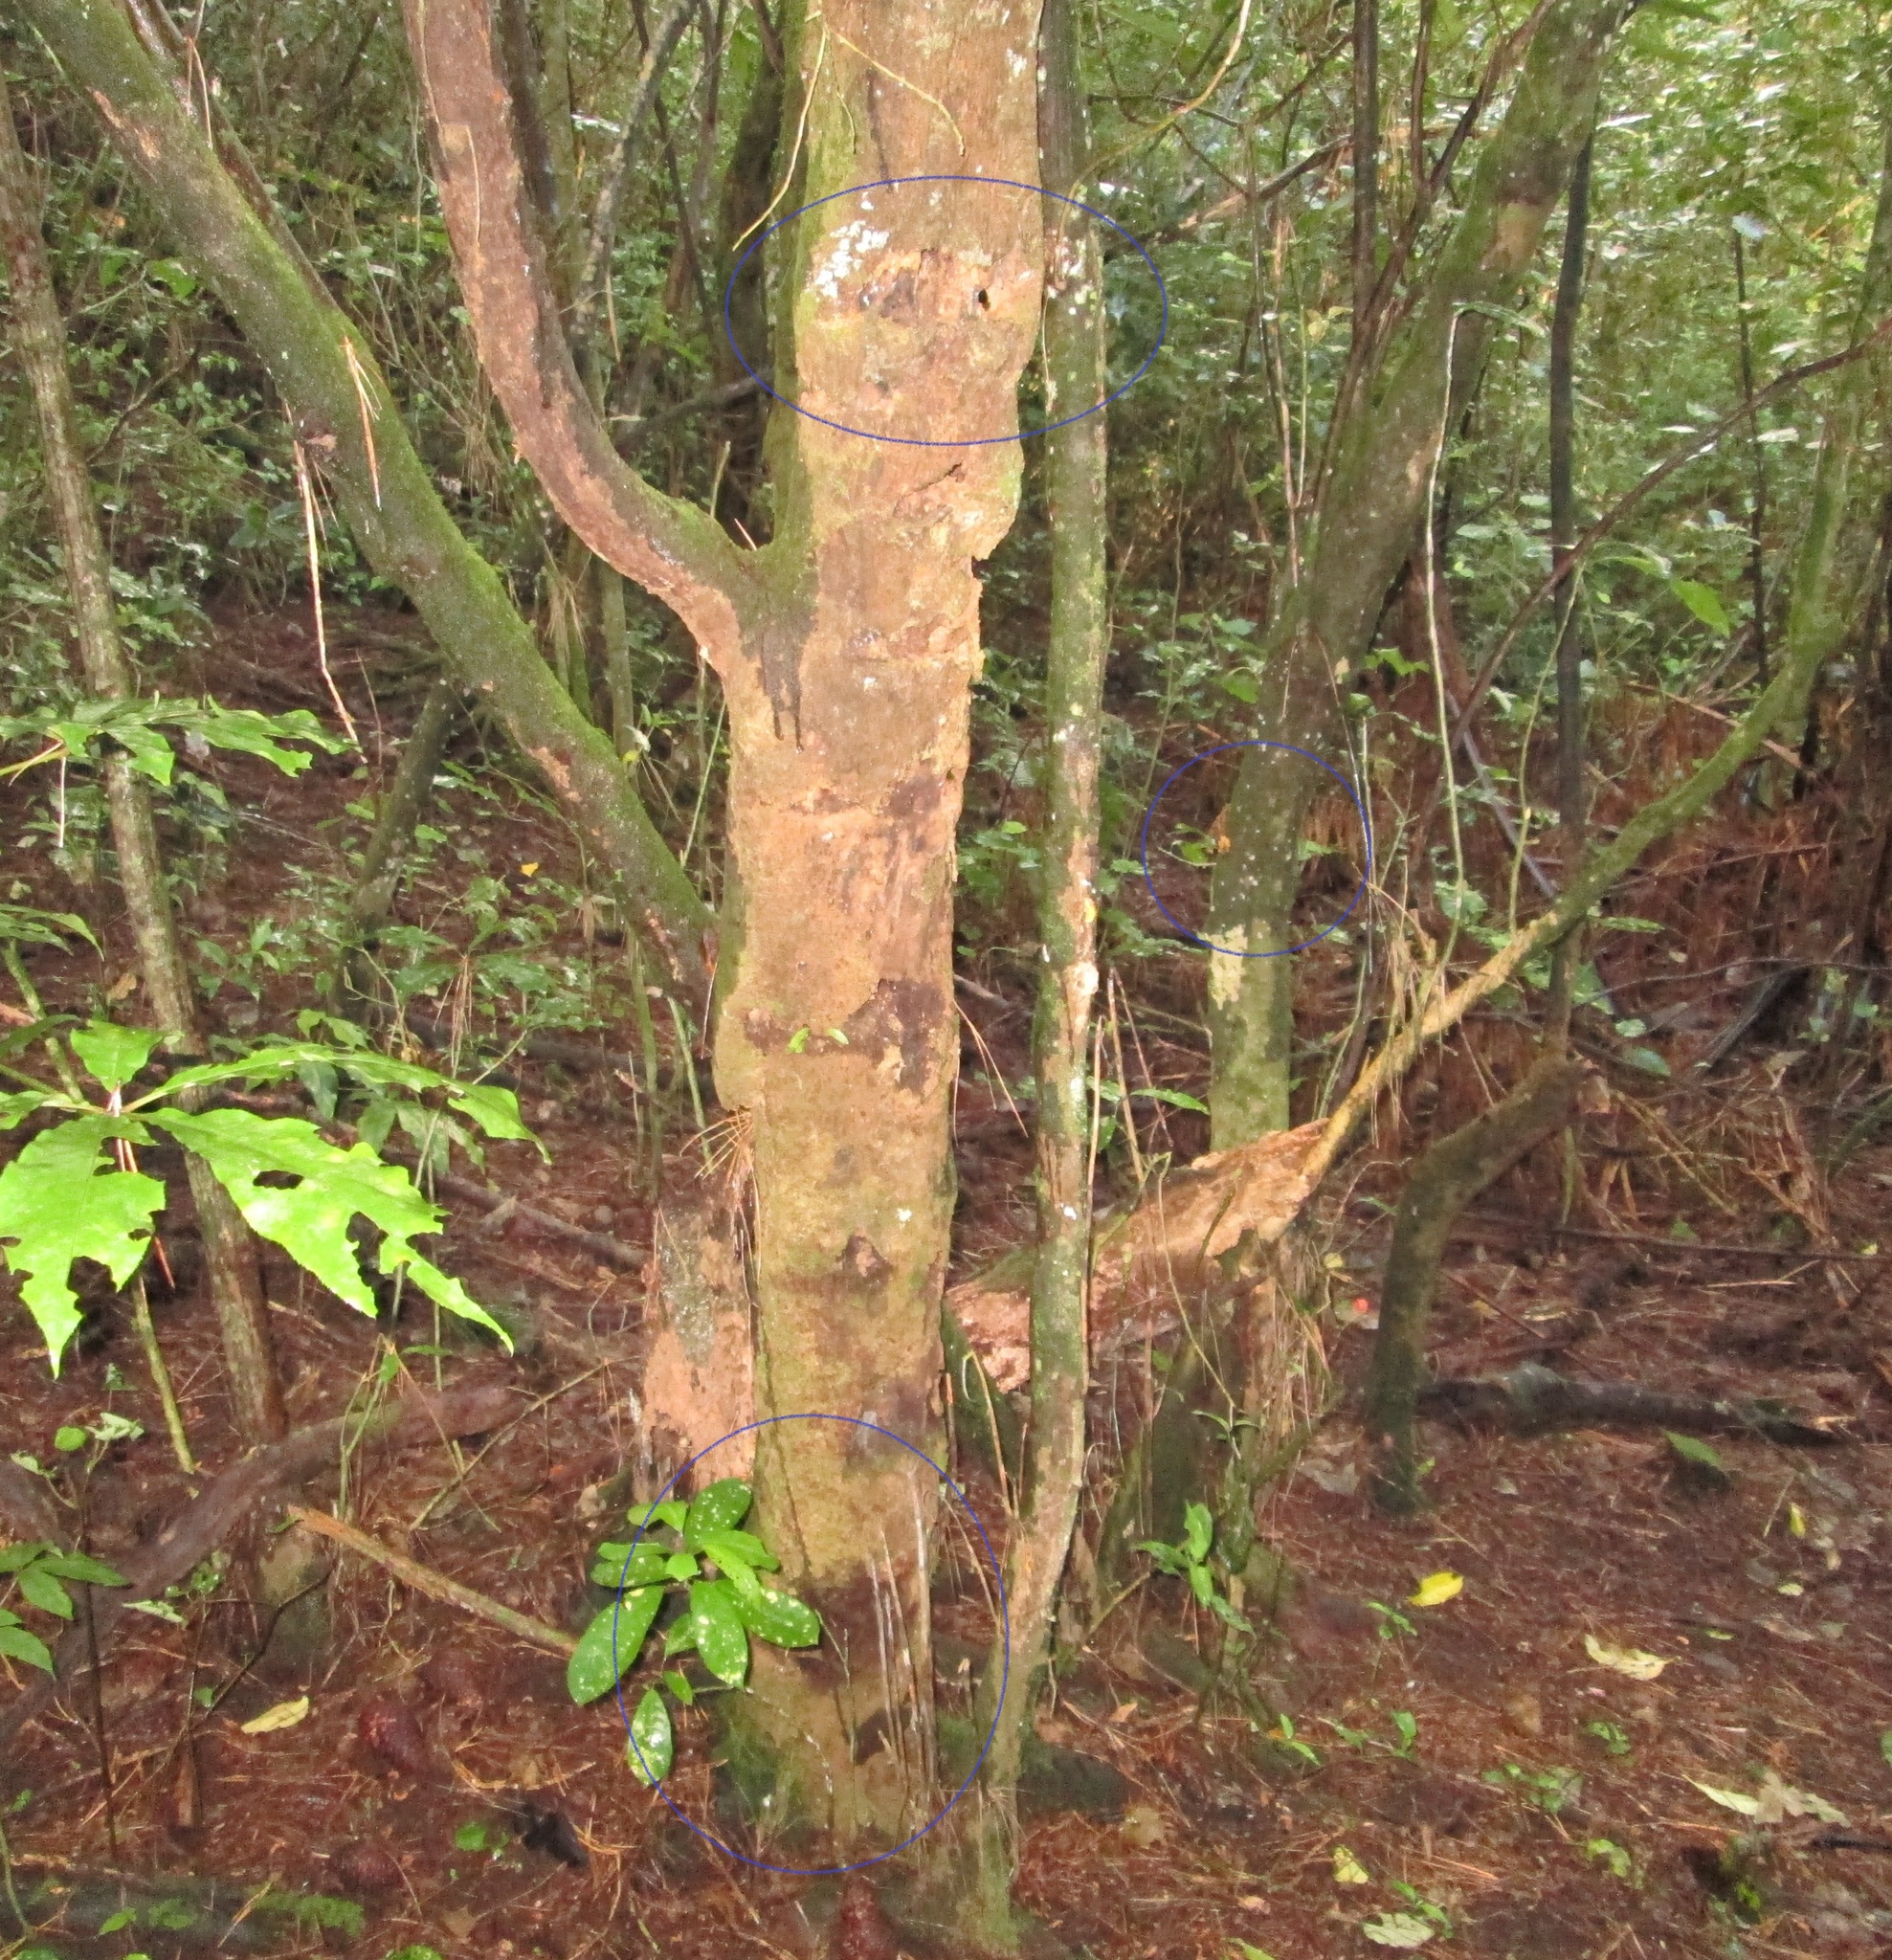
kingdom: Plantae
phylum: Tracheophyta
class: Magnoliopsida
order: Gentianales
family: Rubiaceae
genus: Coprosma
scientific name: Coprosma autumnalis
